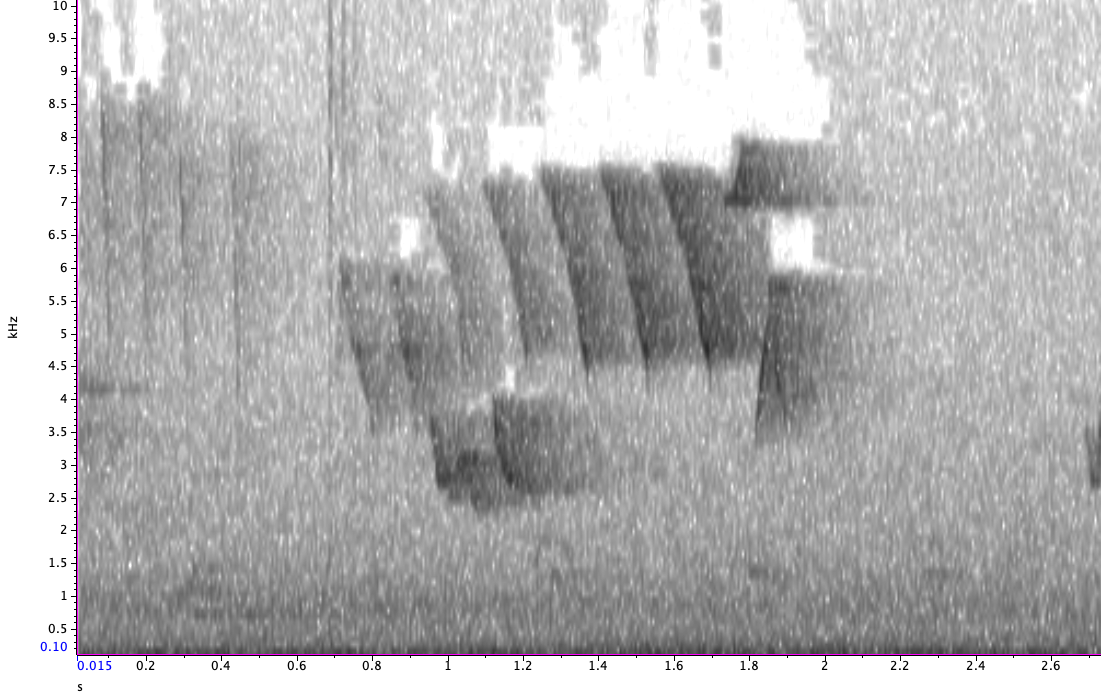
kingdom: Animalia
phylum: Chordata
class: Aves
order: Passeriformes
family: Parulidae
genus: Setophaga
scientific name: Setophaga ruticilla
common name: American redstart
